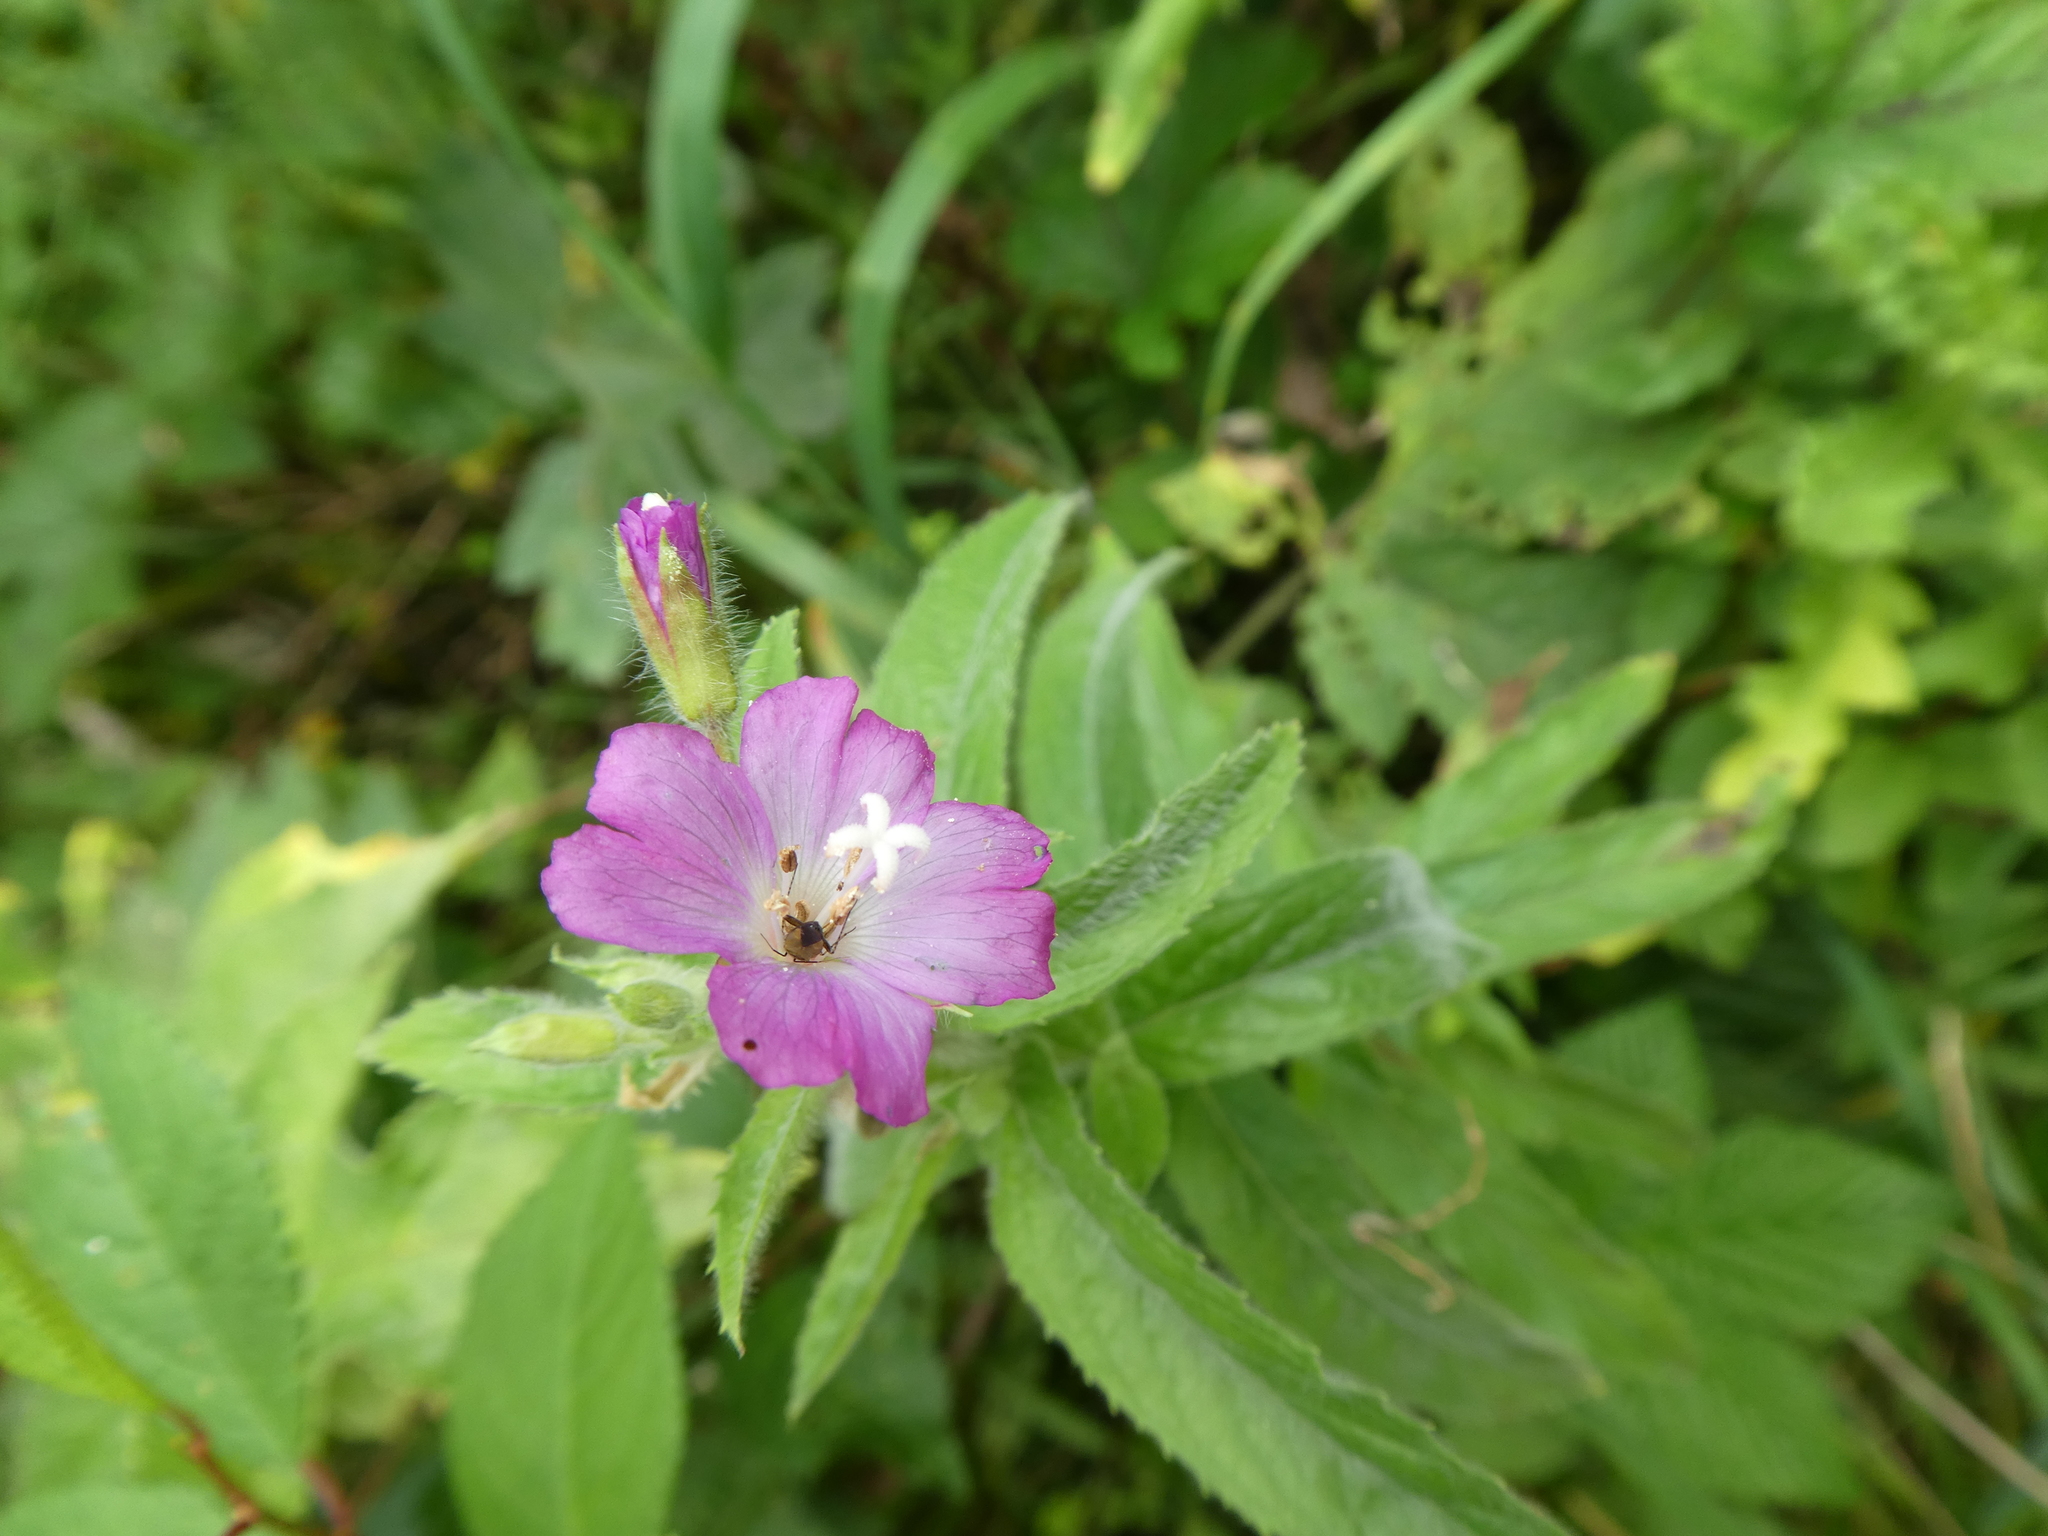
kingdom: Plantae
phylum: Tracheophyta
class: Magnoliopsida
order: Myrtales
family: Onagraceae
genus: Epilobium
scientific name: Epilobium hirsutum
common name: Great willowherb
